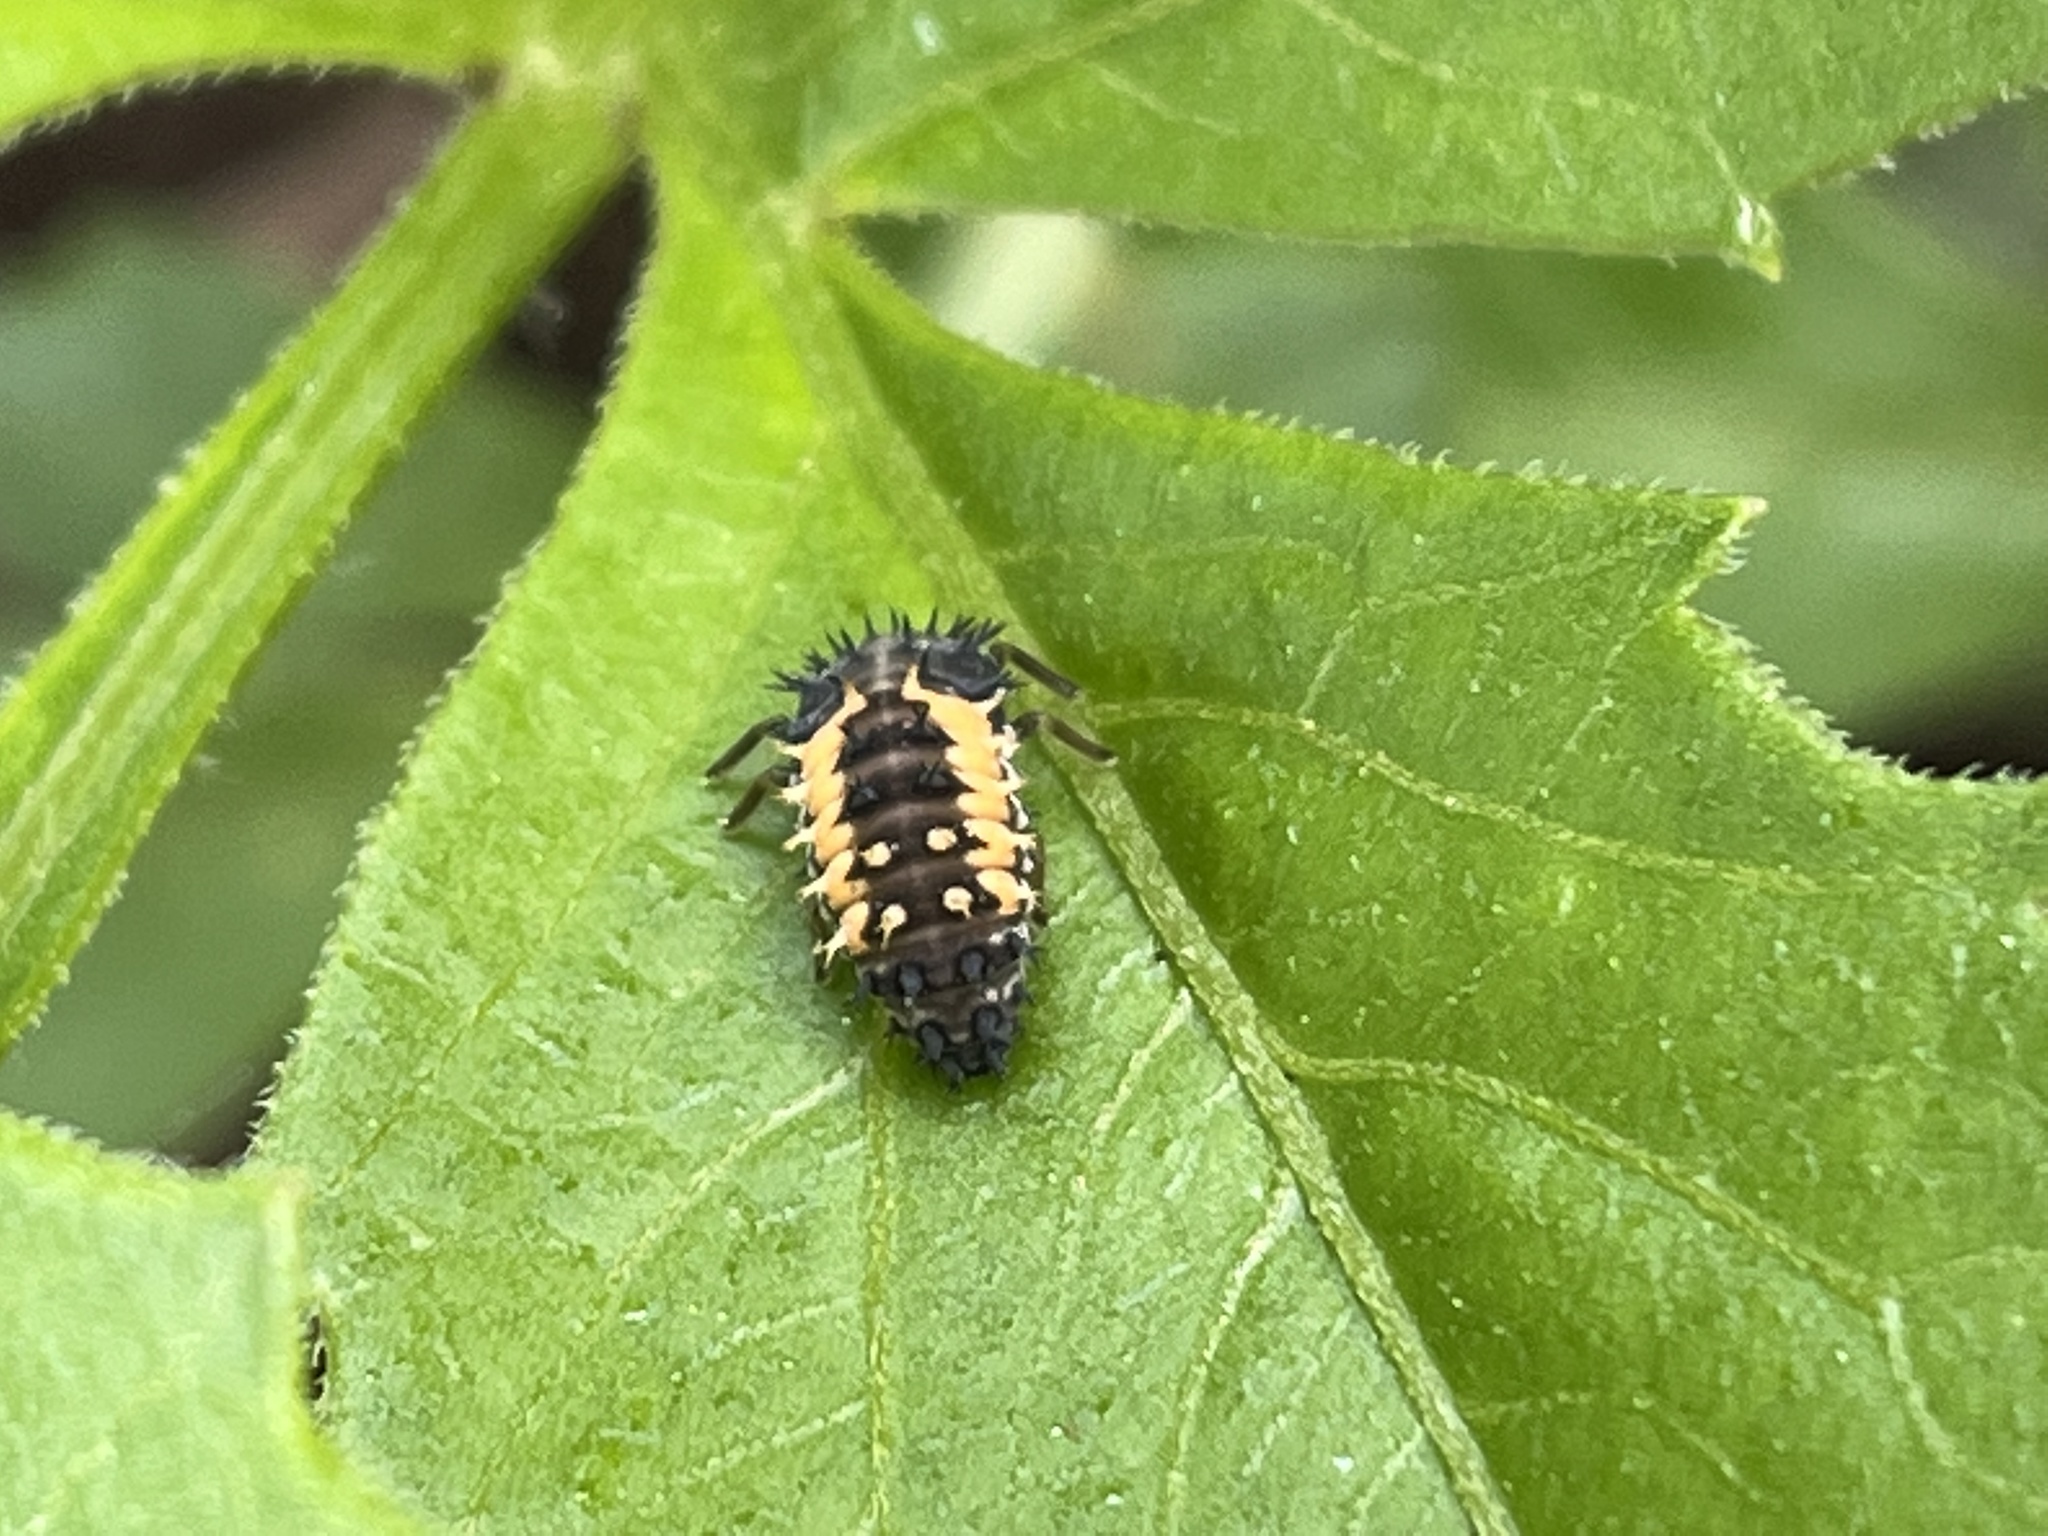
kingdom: Animalia
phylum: Arthropoda
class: Insecta
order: Coleoptera
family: Coccinellidae
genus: Harmonia
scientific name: Harmonia axyridis
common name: Harlequin ladybird
